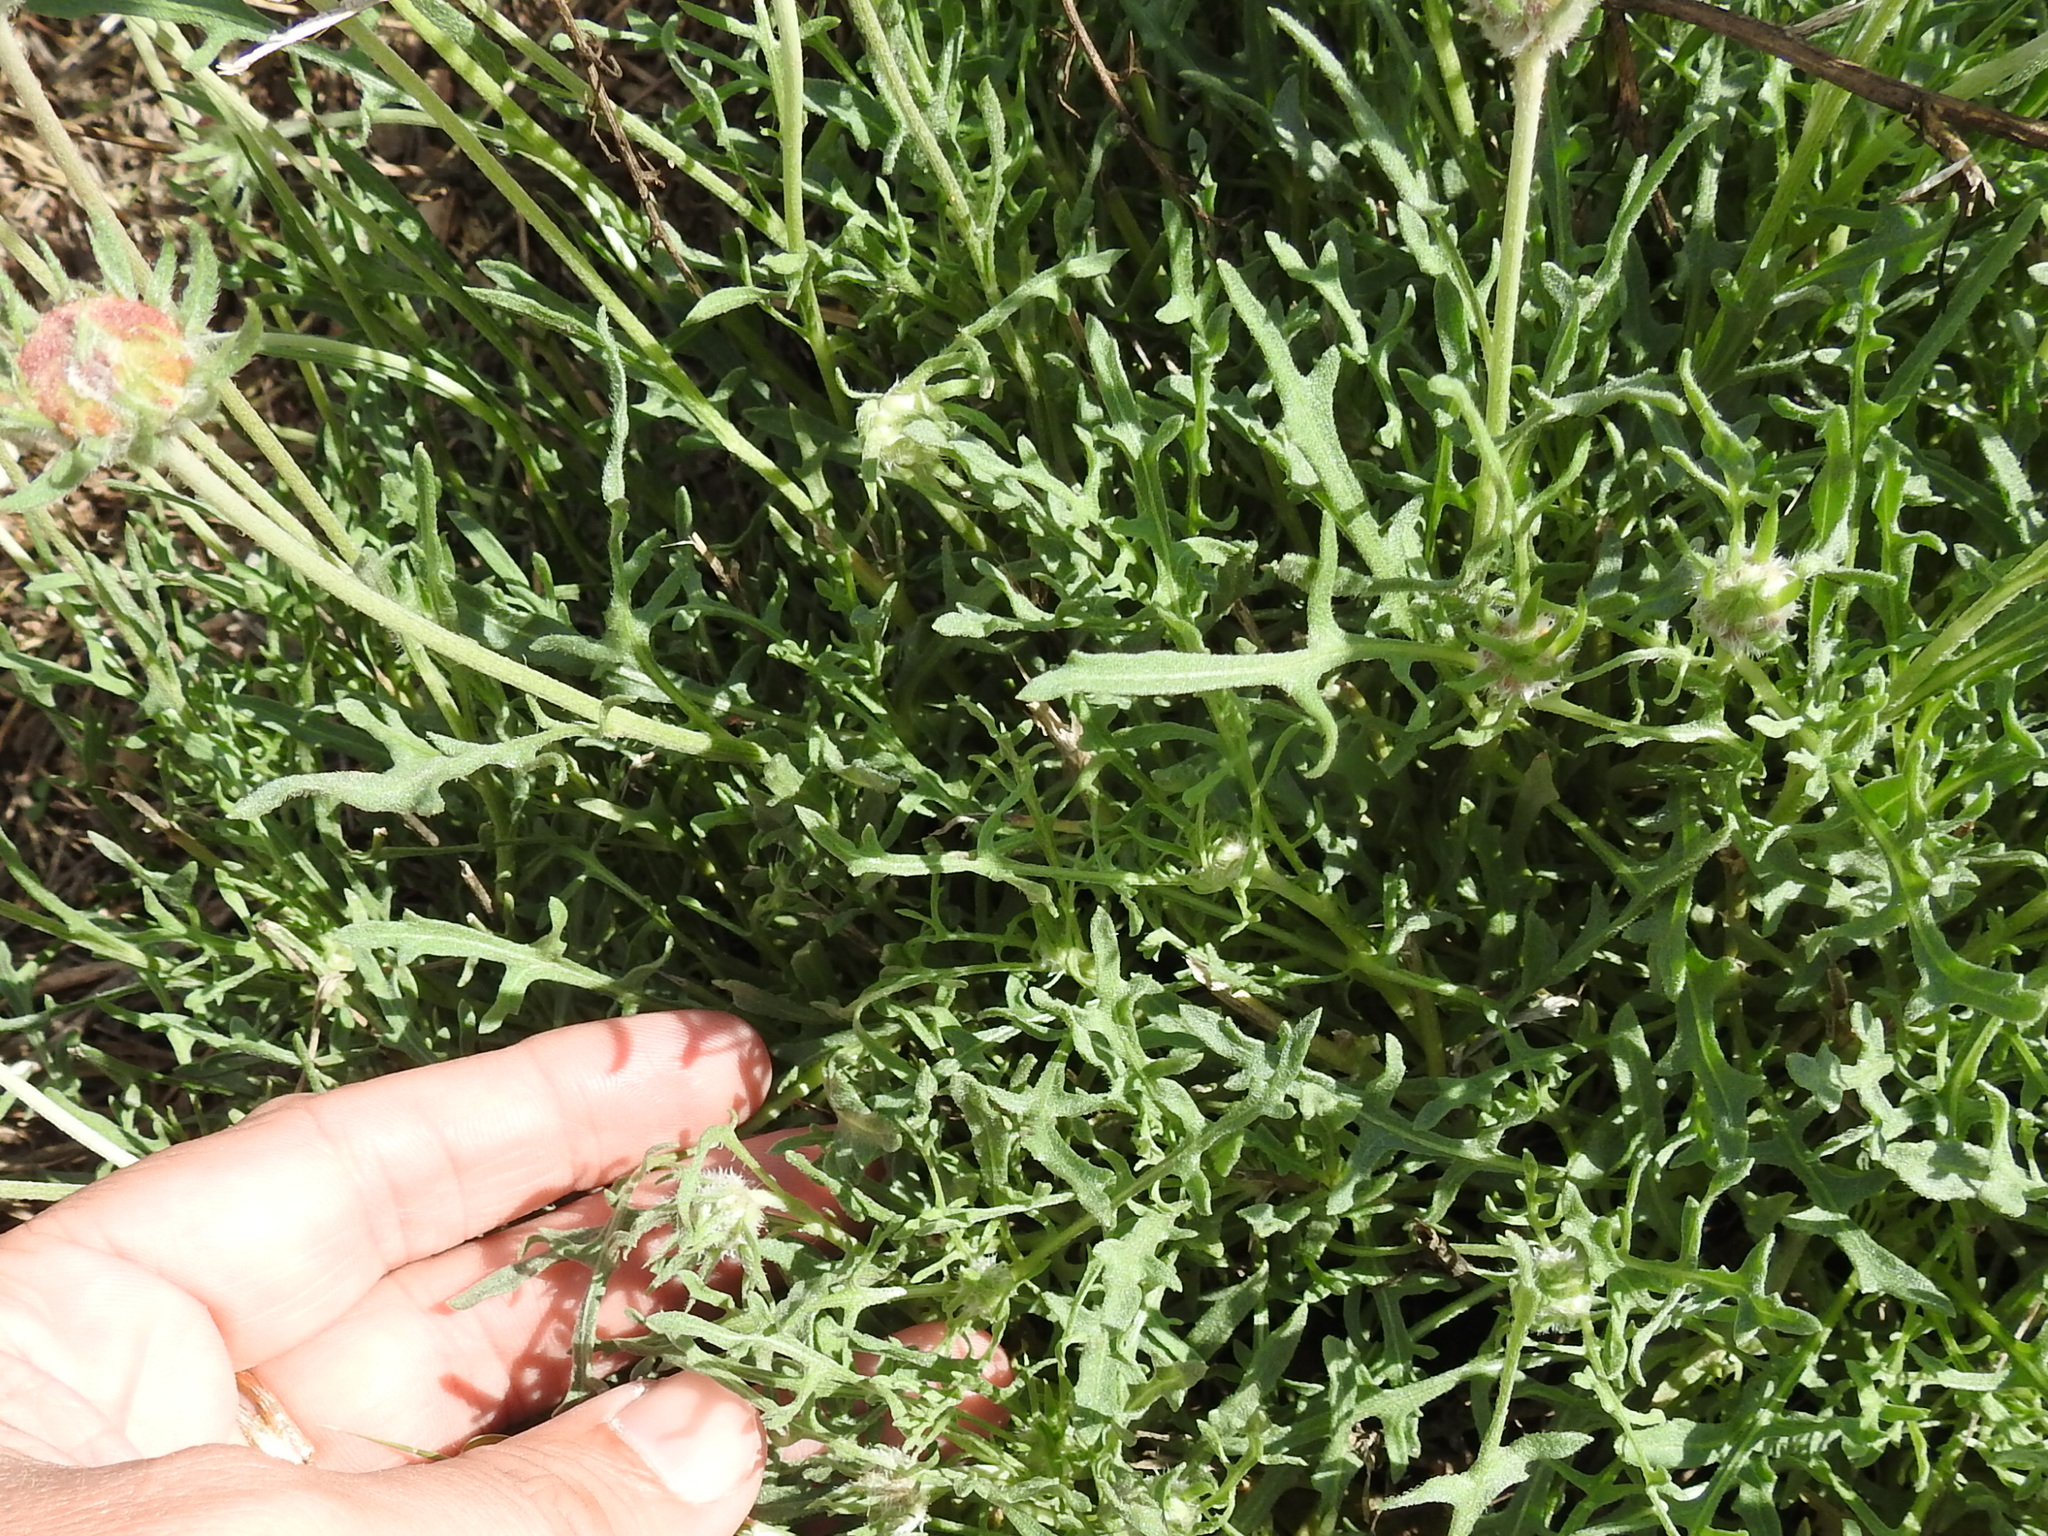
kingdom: Plantae
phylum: Tracheophyta
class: Magnoliopsida
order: Asterales
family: Asteraceae
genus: Gaillardia
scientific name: Gaillardia pinnatifida
